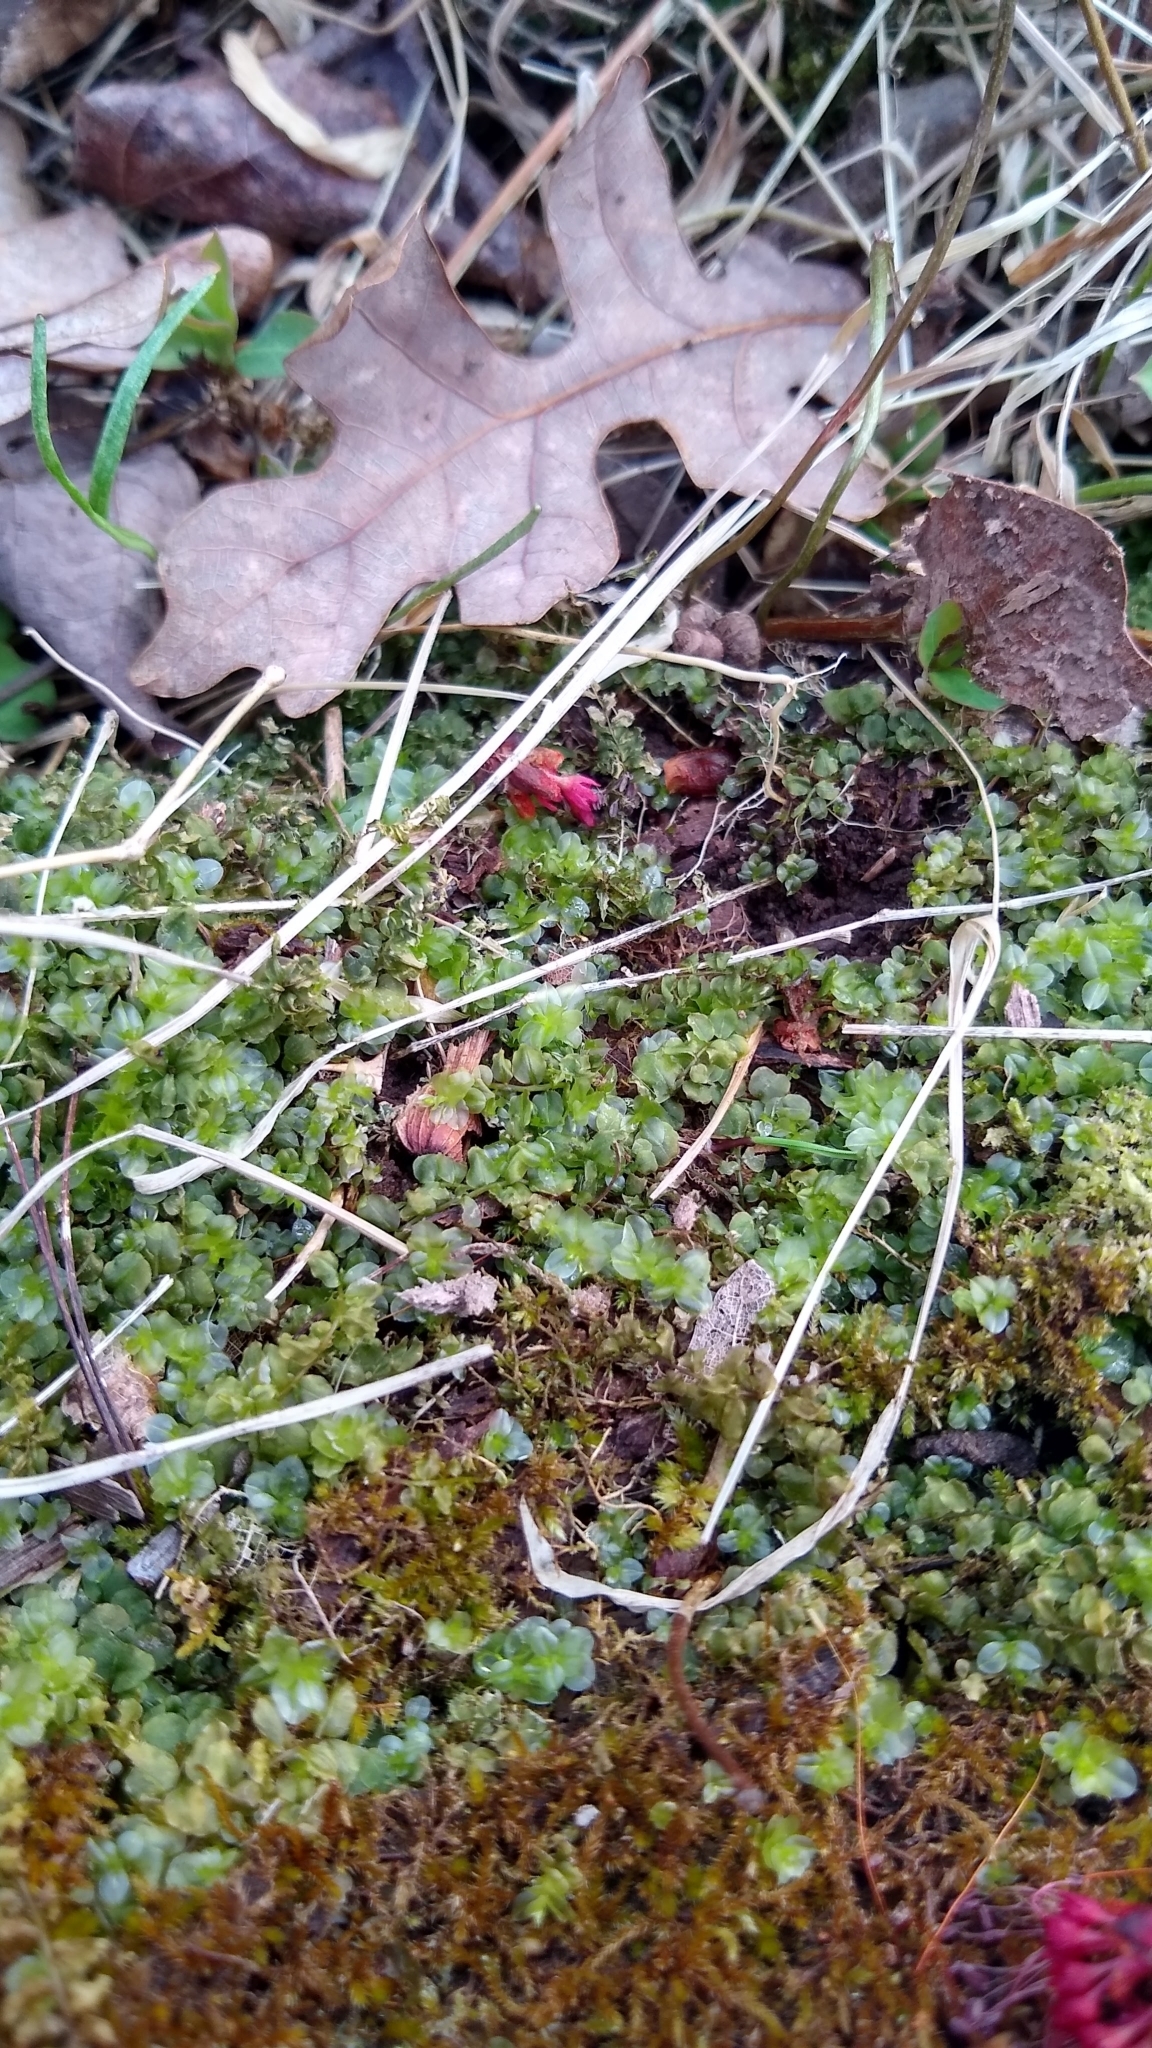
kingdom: Plantae
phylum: Bryophyta
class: Bryopsida
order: Bryales
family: Mniaceae
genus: Plagiomnium
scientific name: Plagiomnium ciliare
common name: Toothed leafy moss
